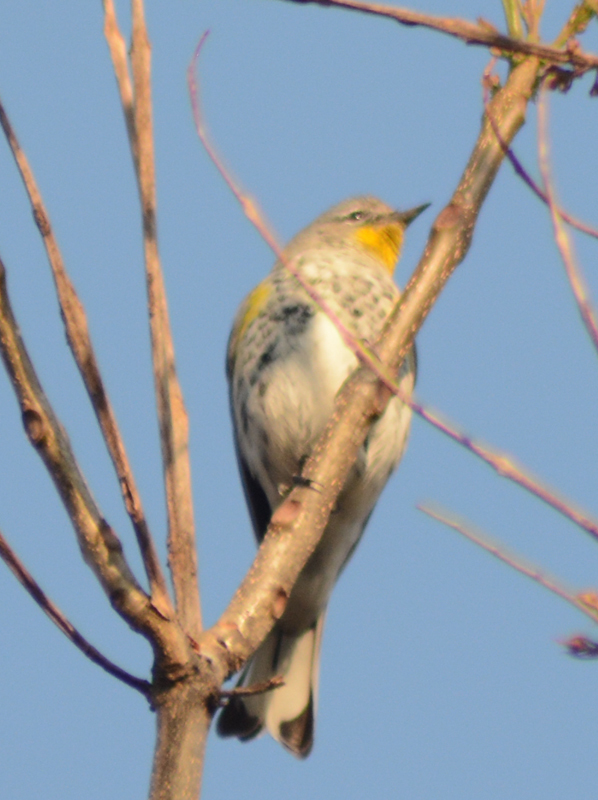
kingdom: Animalia
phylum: Chordata
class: Aves
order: Passeriformes
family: Parulidae
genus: Setophaga
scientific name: Setophaga coronata
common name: Myrtle warbler
